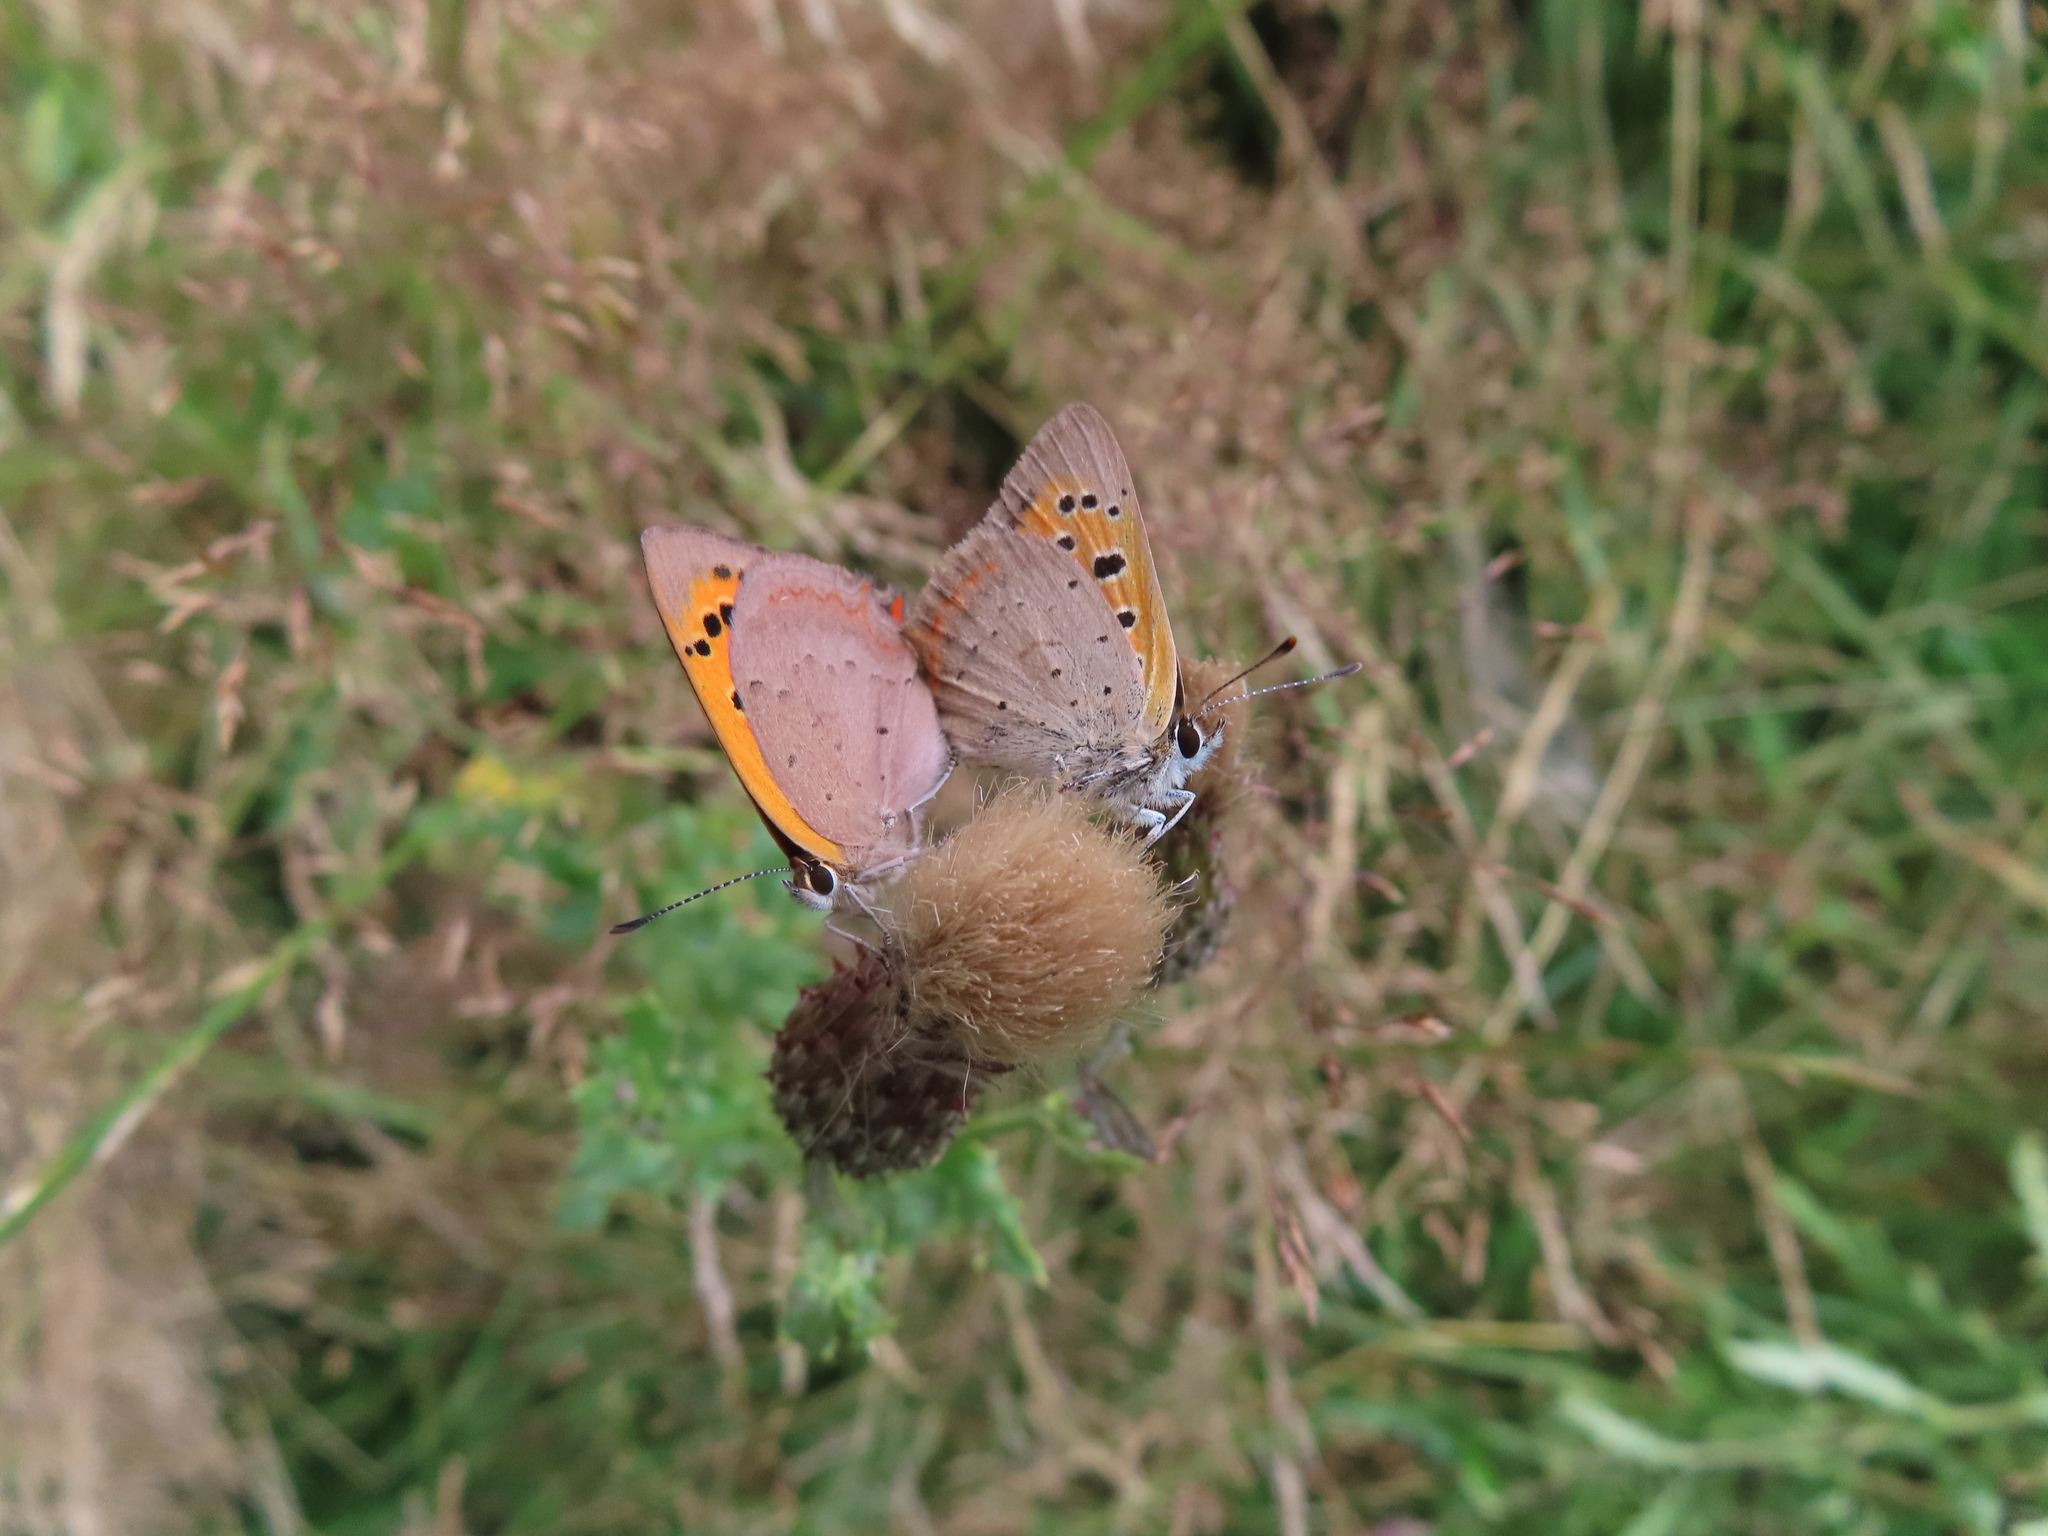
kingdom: Animalia
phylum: Arthropoda
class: Insecta
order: Lepidoptera
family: Lycaenidae
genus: Lycaena
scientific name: Lycaena phlaeas
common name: Small copper
